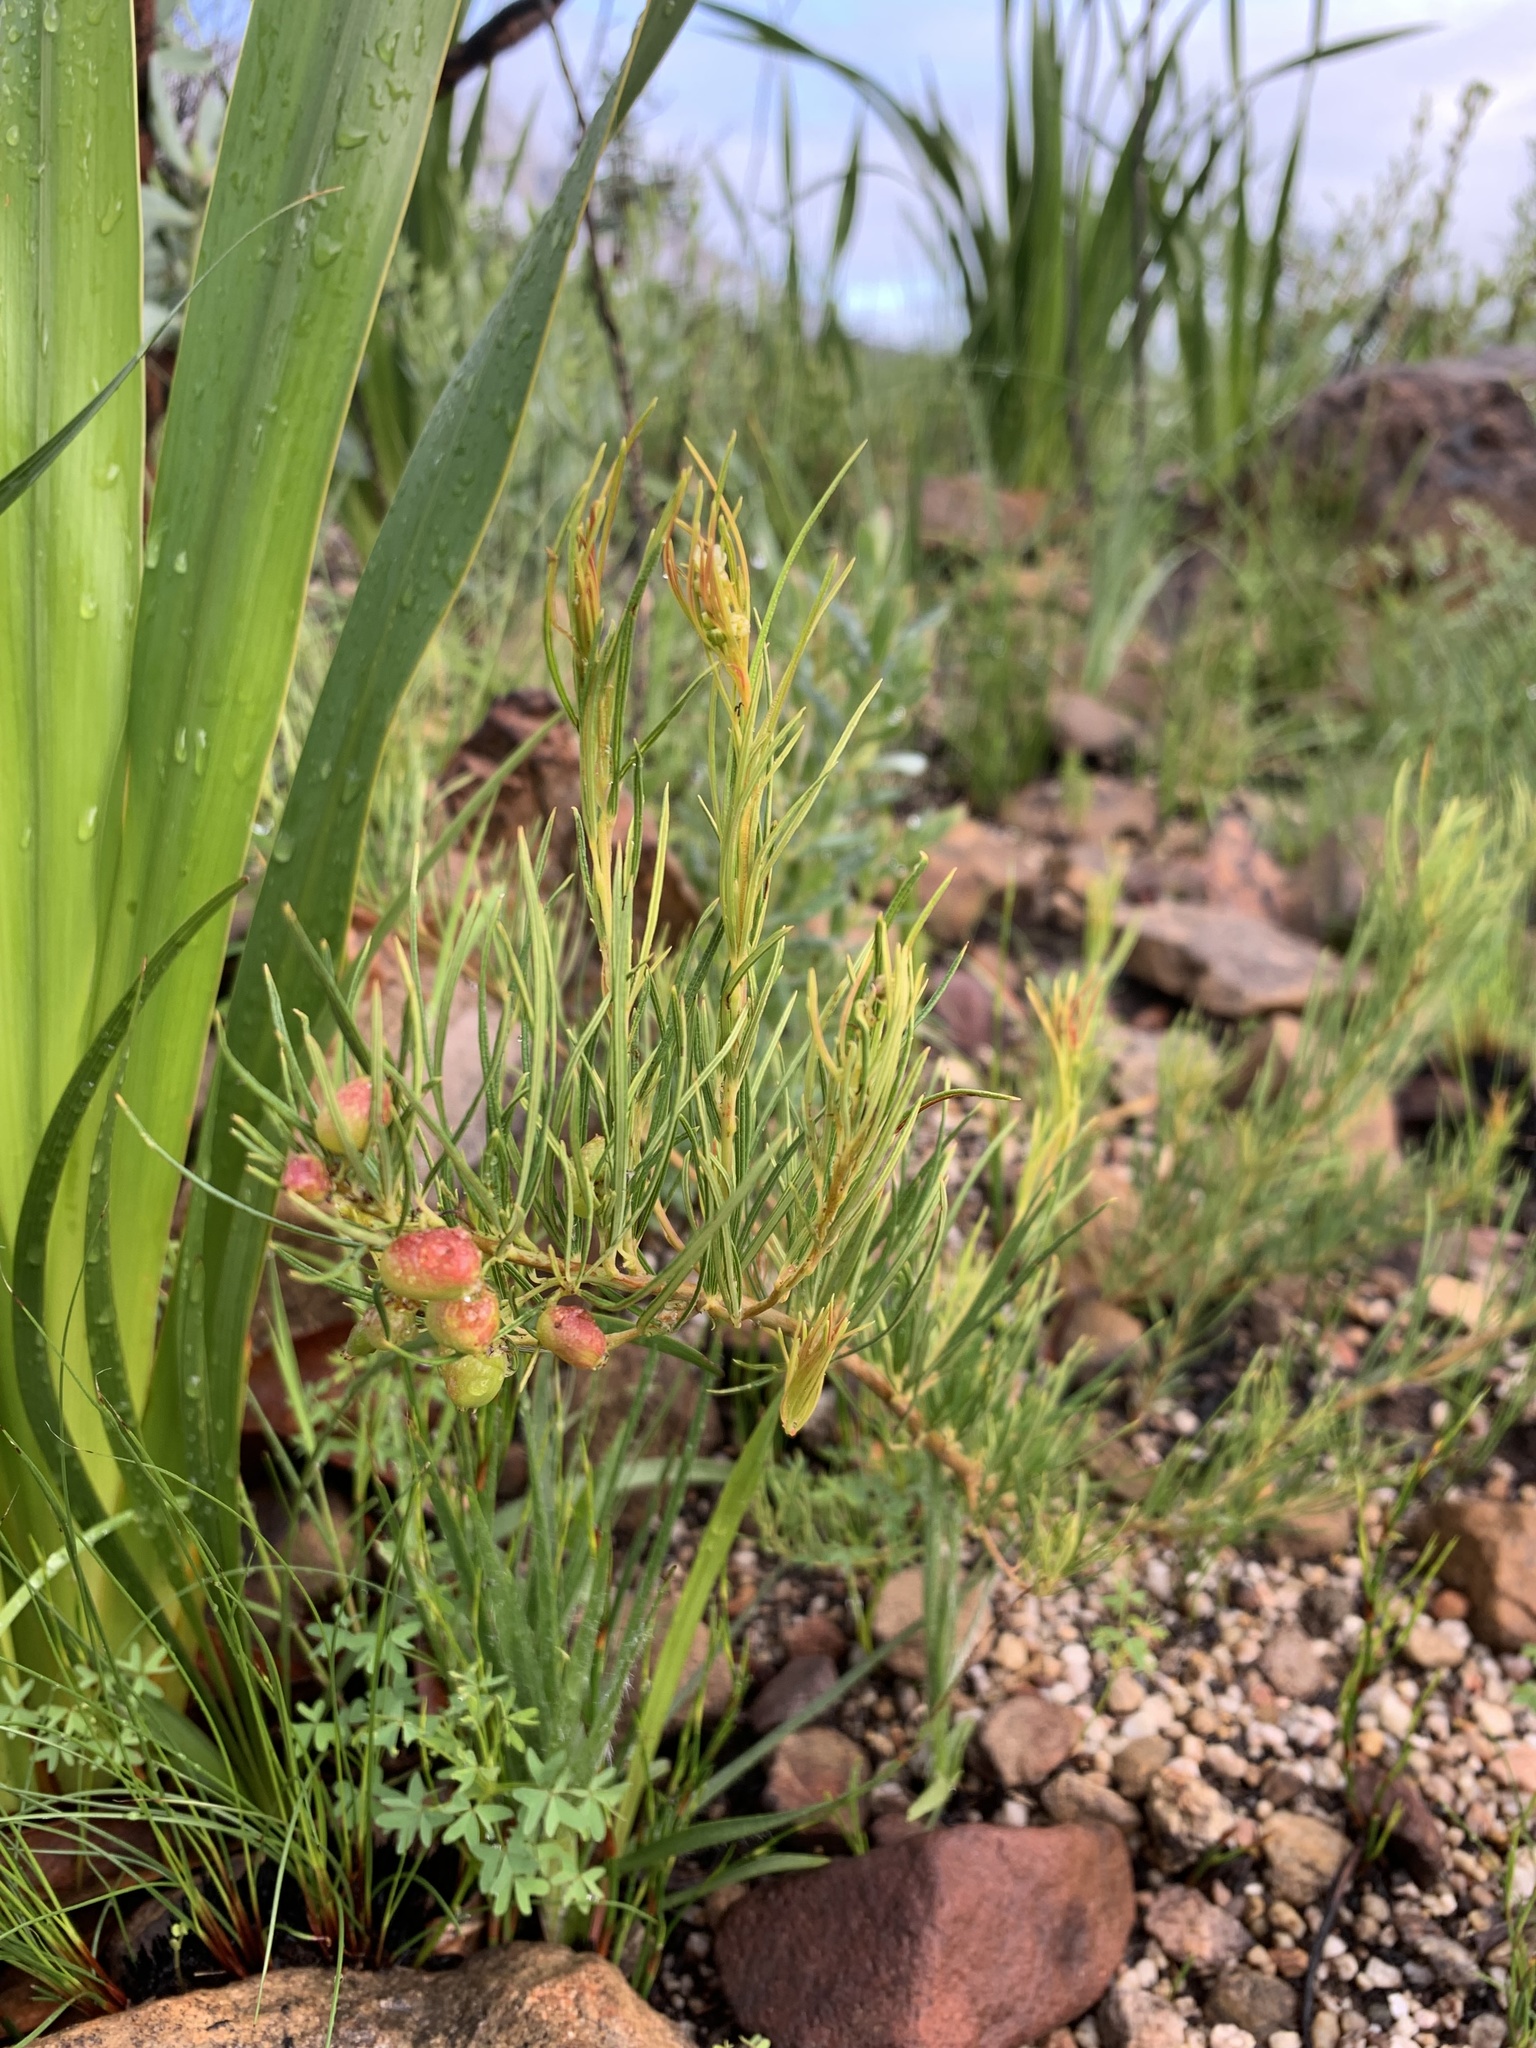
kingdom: Plantae
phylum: Tracheophyta
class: Magnoliopsida
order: Sapindales
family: Anacardiaceae
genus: Searsia
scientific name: Searsia rosmarinifolia
